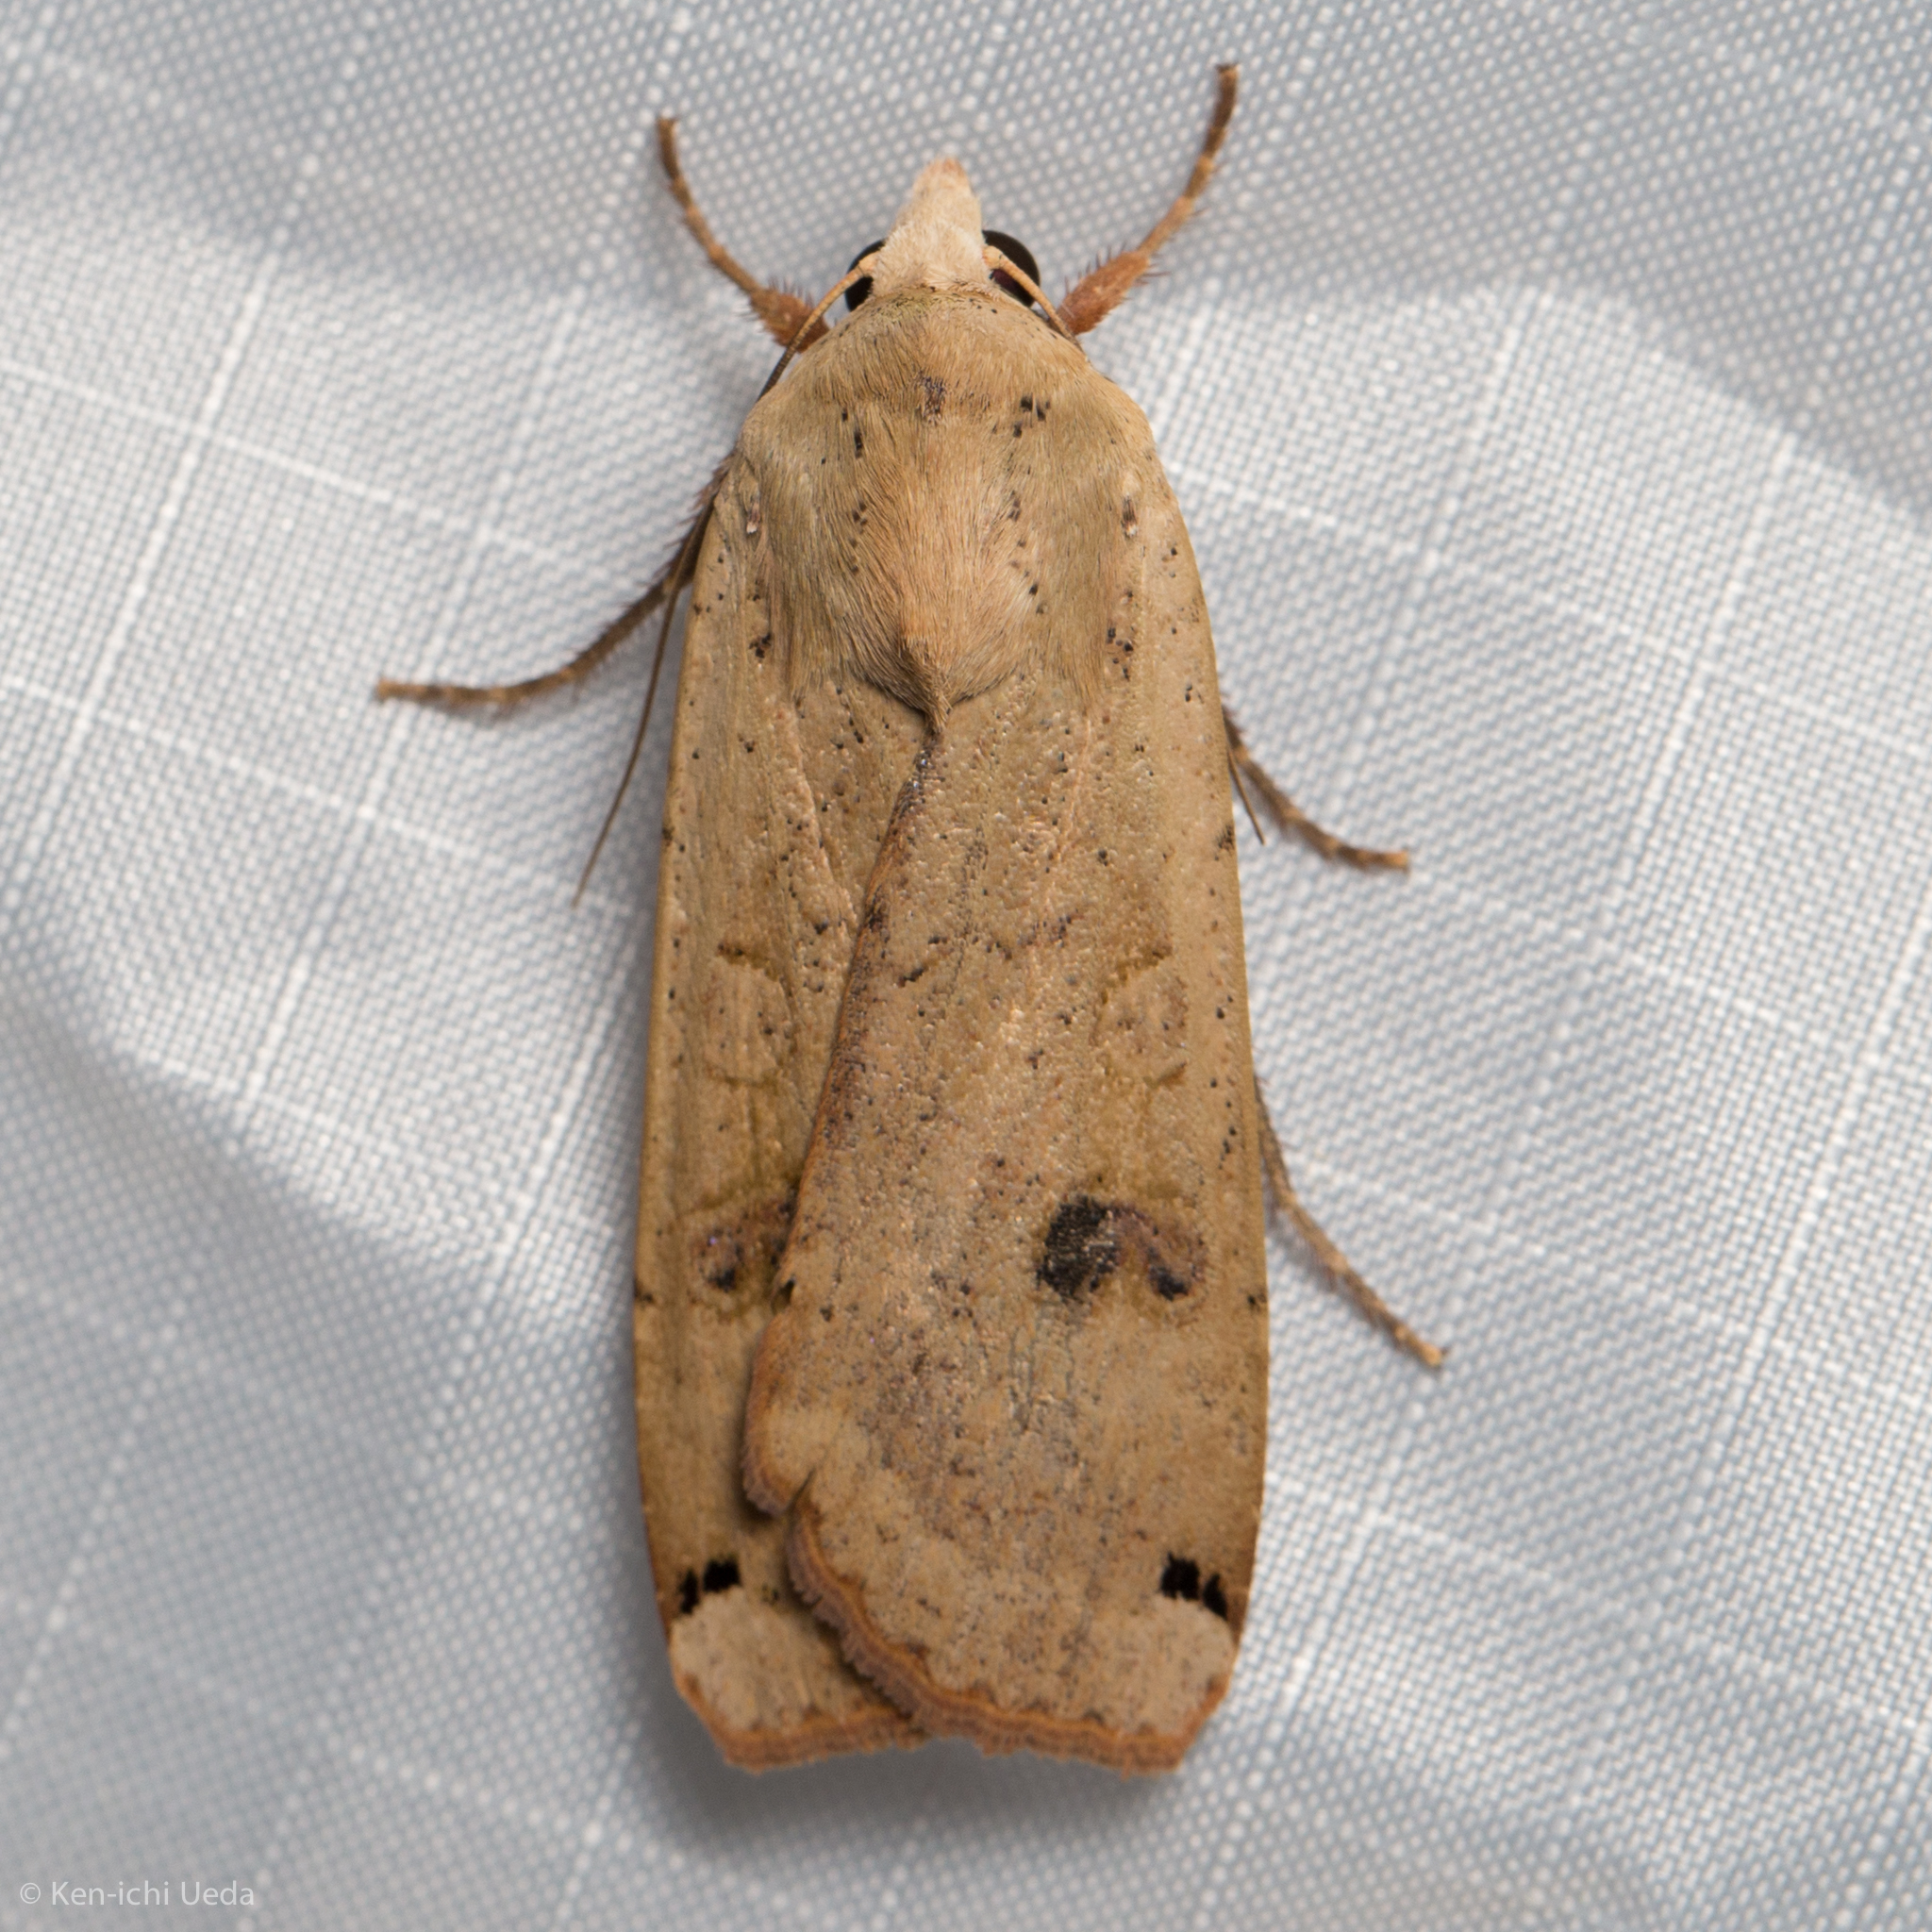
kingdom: Animalia
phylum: Arthropoda
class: Insecta
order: Lepidoptera
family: Noctuidae
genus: Noctua
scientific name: Noctua pronuba
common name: Large yellow underwing
